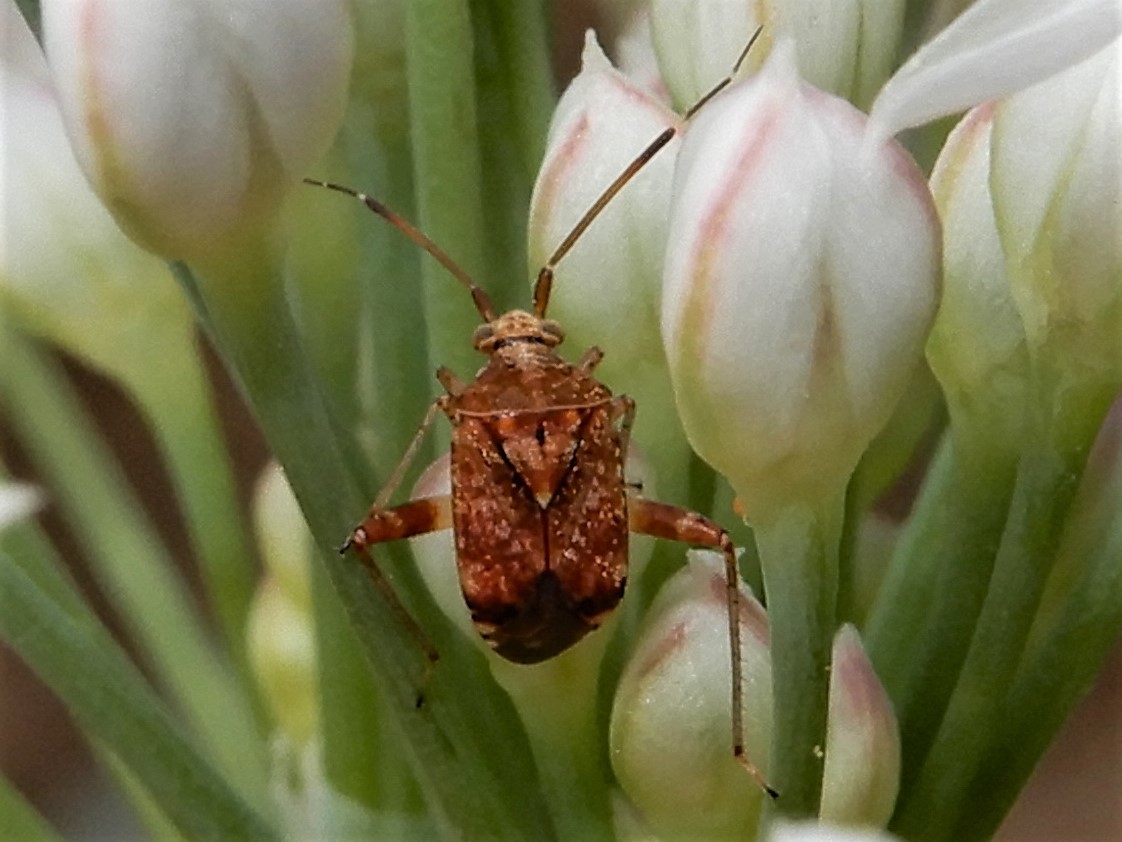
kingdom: Animalia
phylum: Arthropoda
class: Insecta
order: Hemiptera
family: Miridae
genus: Sidnia
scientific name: Sidnia kinbergi
